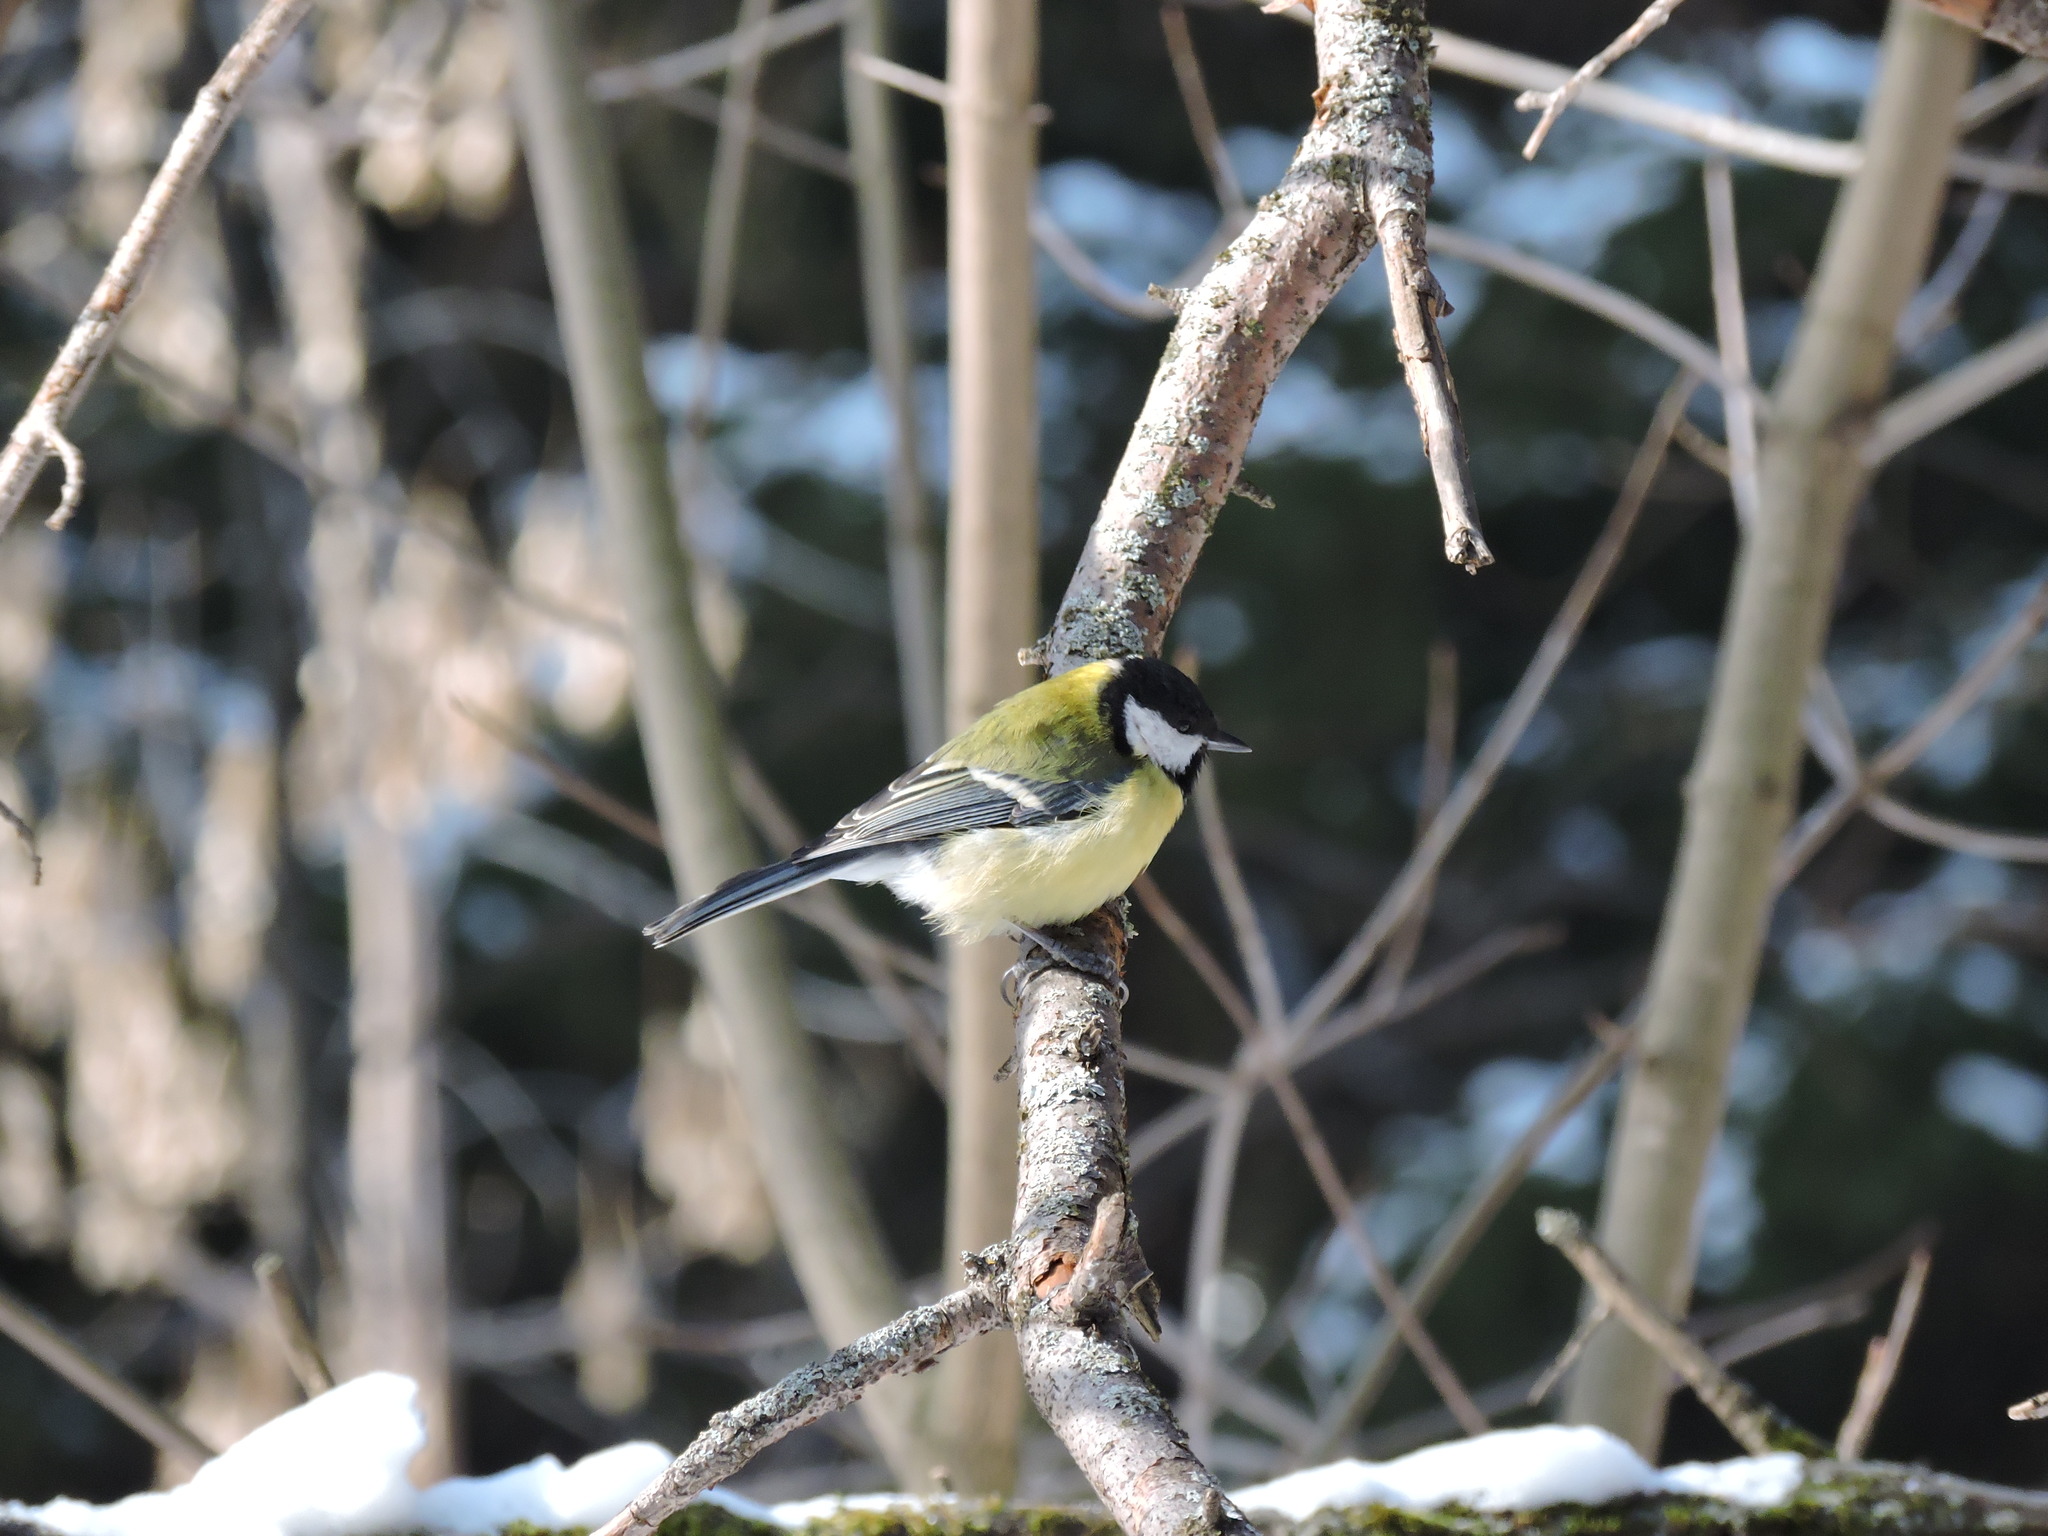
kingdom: Animalia
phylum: Chordata
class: Aves
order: Passeriformes
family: Paridae
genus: Parus
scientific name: Parus major
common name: Great tit
